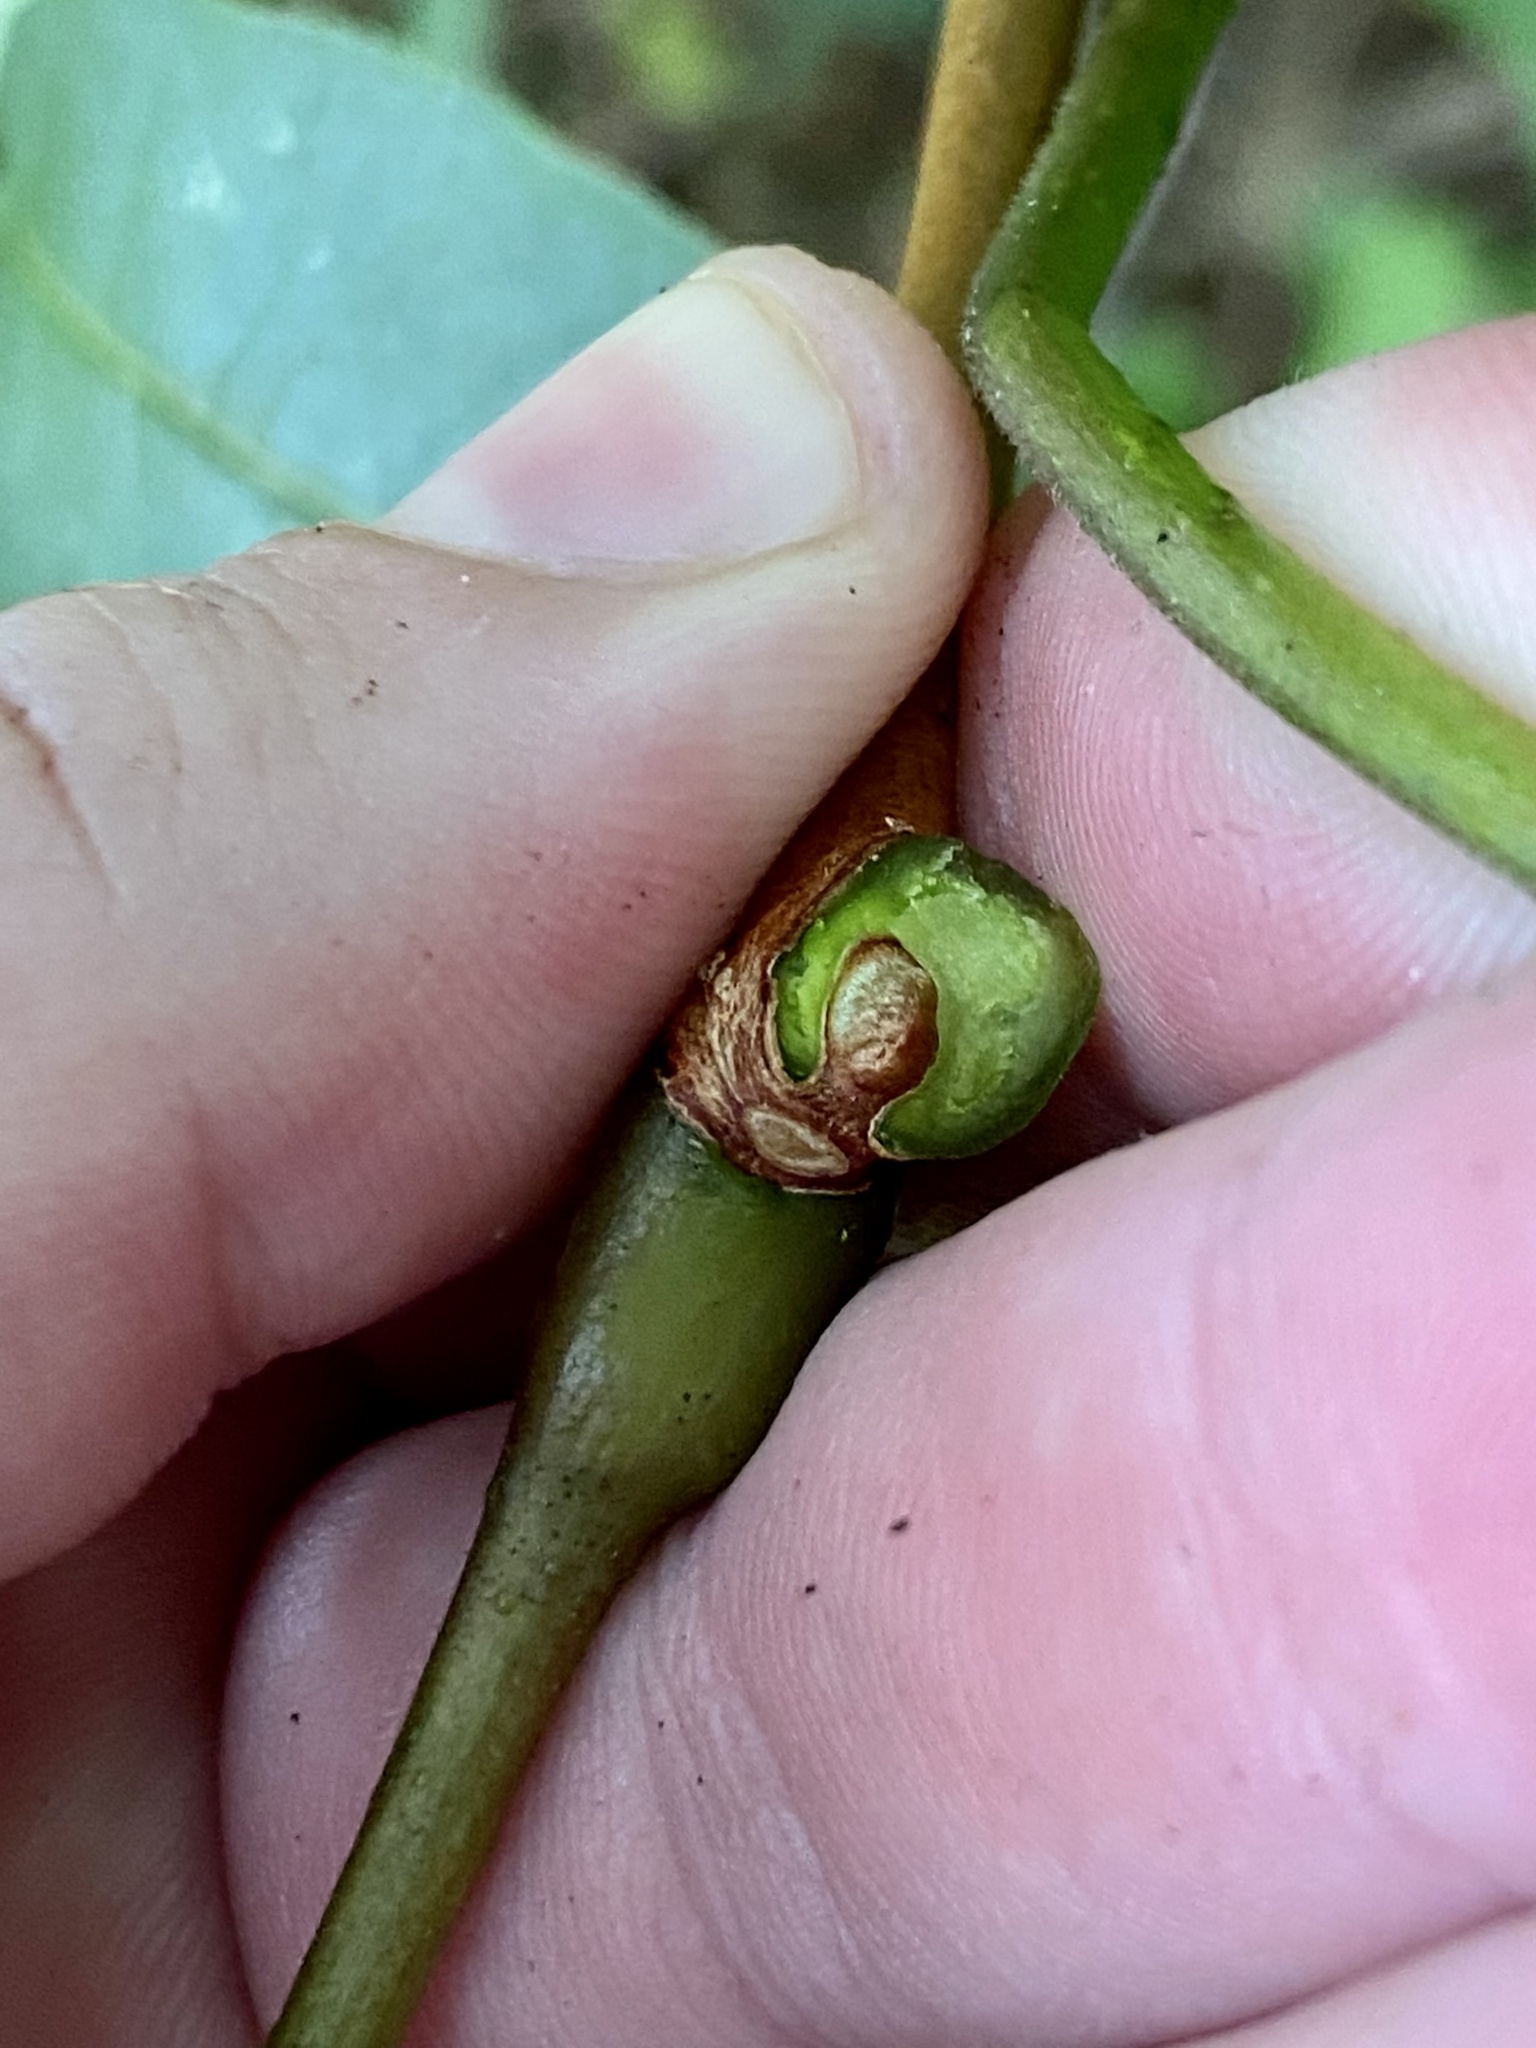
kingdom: Plantae
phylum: Tracheophyta
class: Magnoliopsida
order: Sapindales
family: Rutaceae
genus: Phellodendron
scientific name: Phellodendron amurense
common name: Amur corktree
